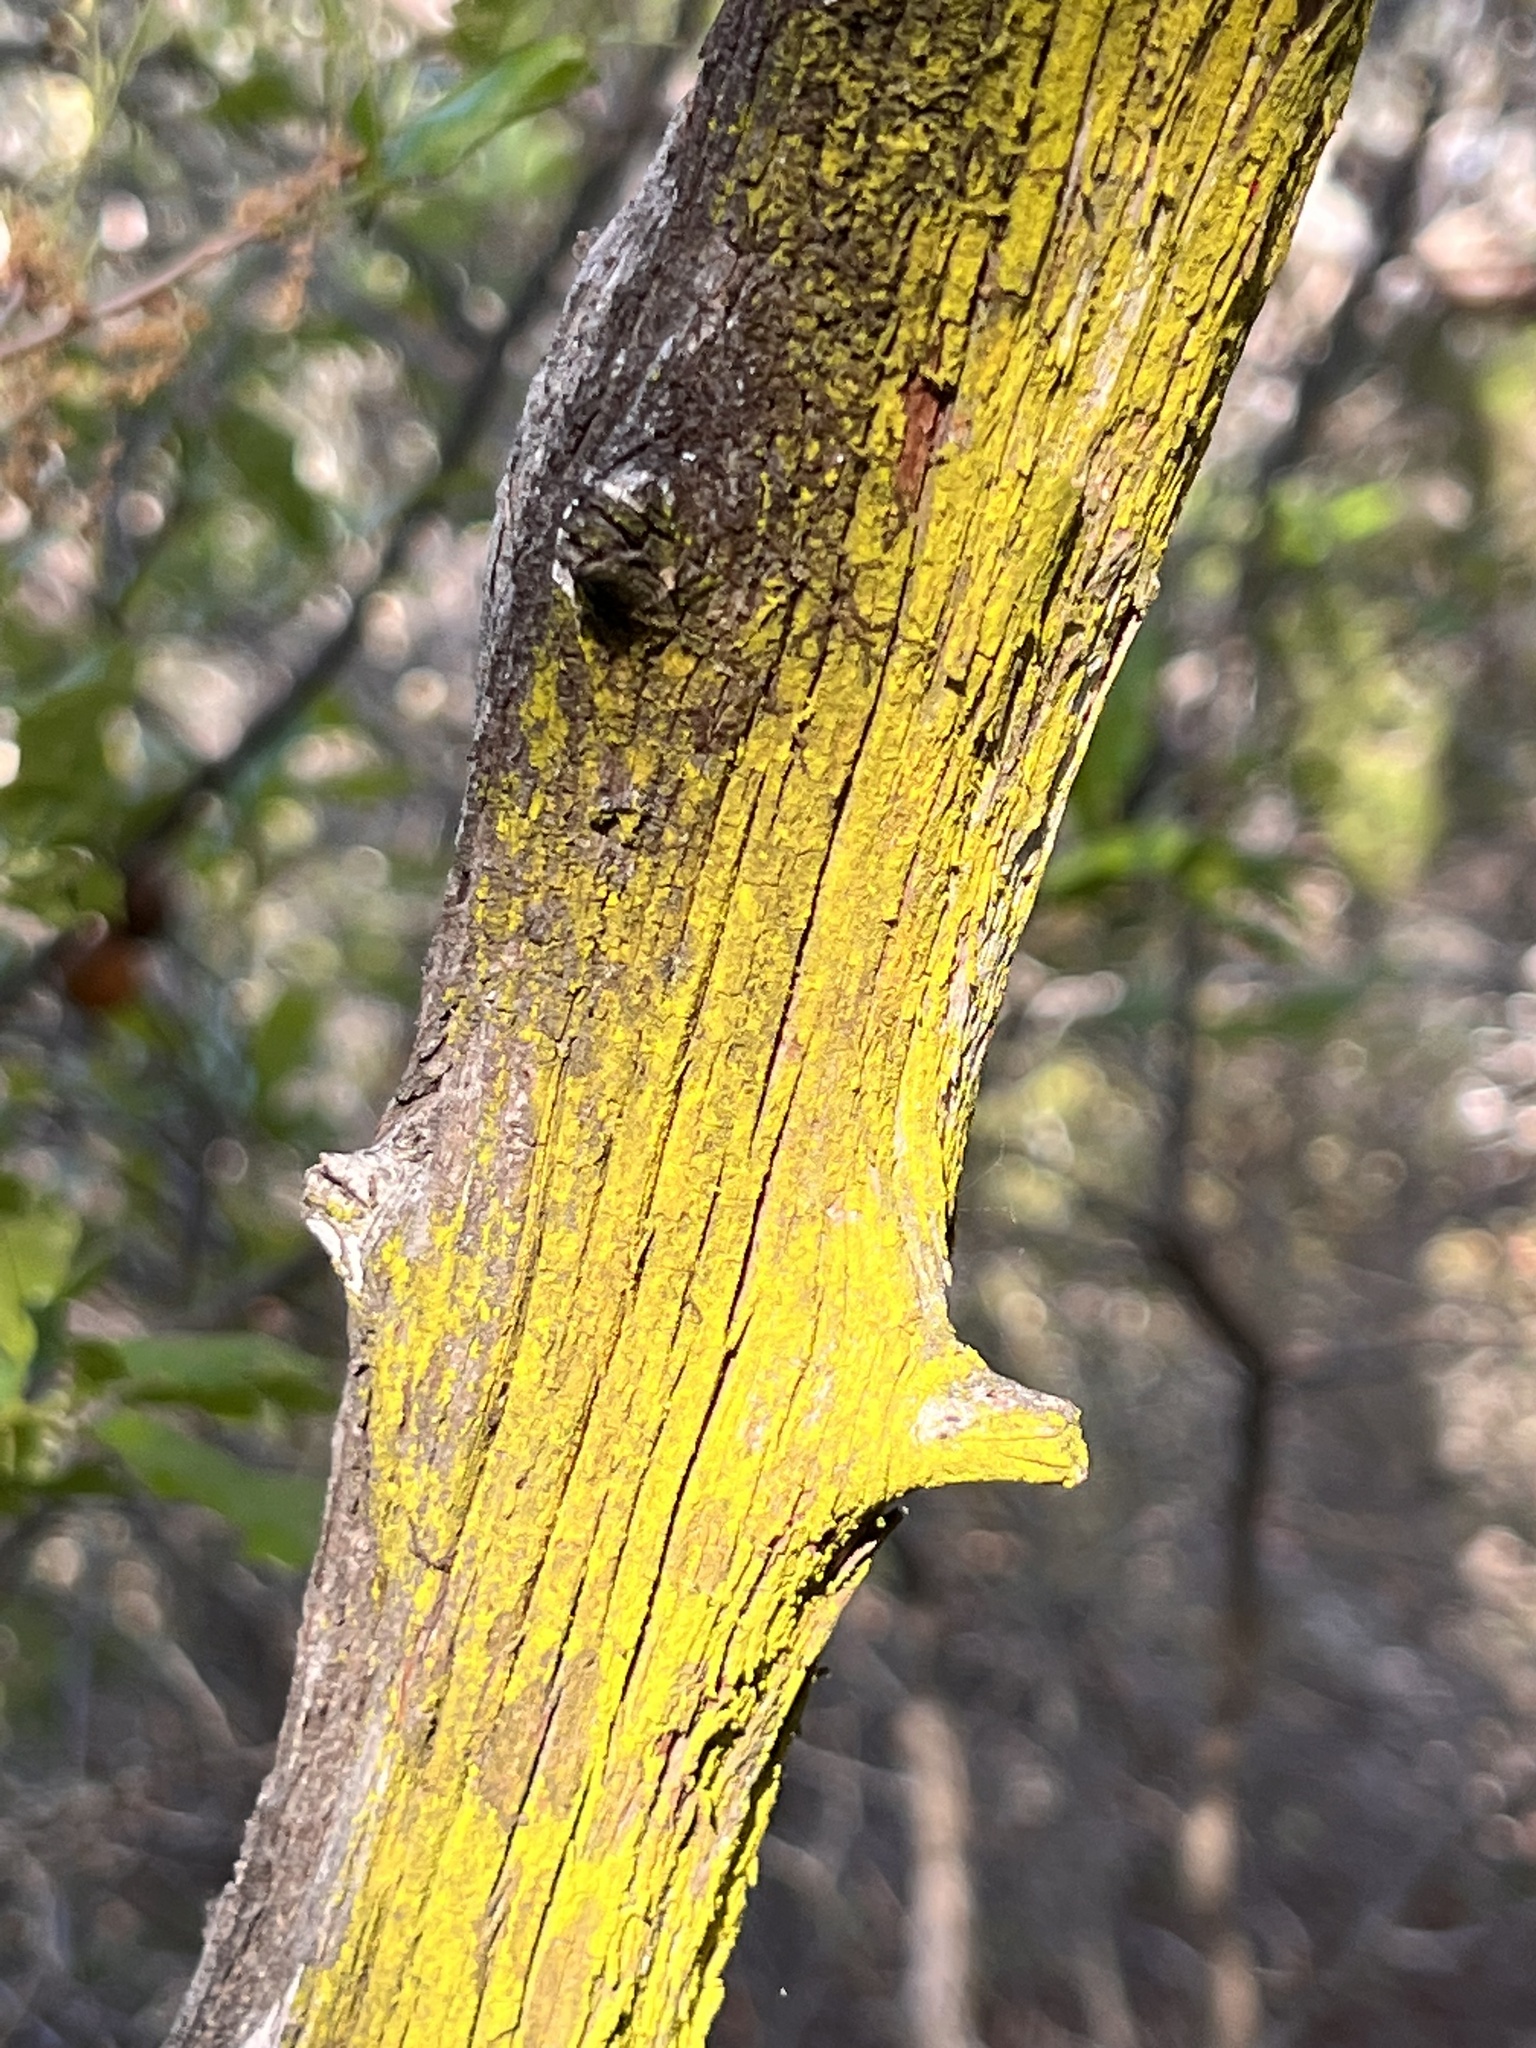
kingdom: Fungi
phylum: Ascomycota
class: Arthoniomycetes
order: Arthoniales
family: Chrysotrichaceae
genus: Chrysothrix
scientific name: Chrysothrix candelaris
